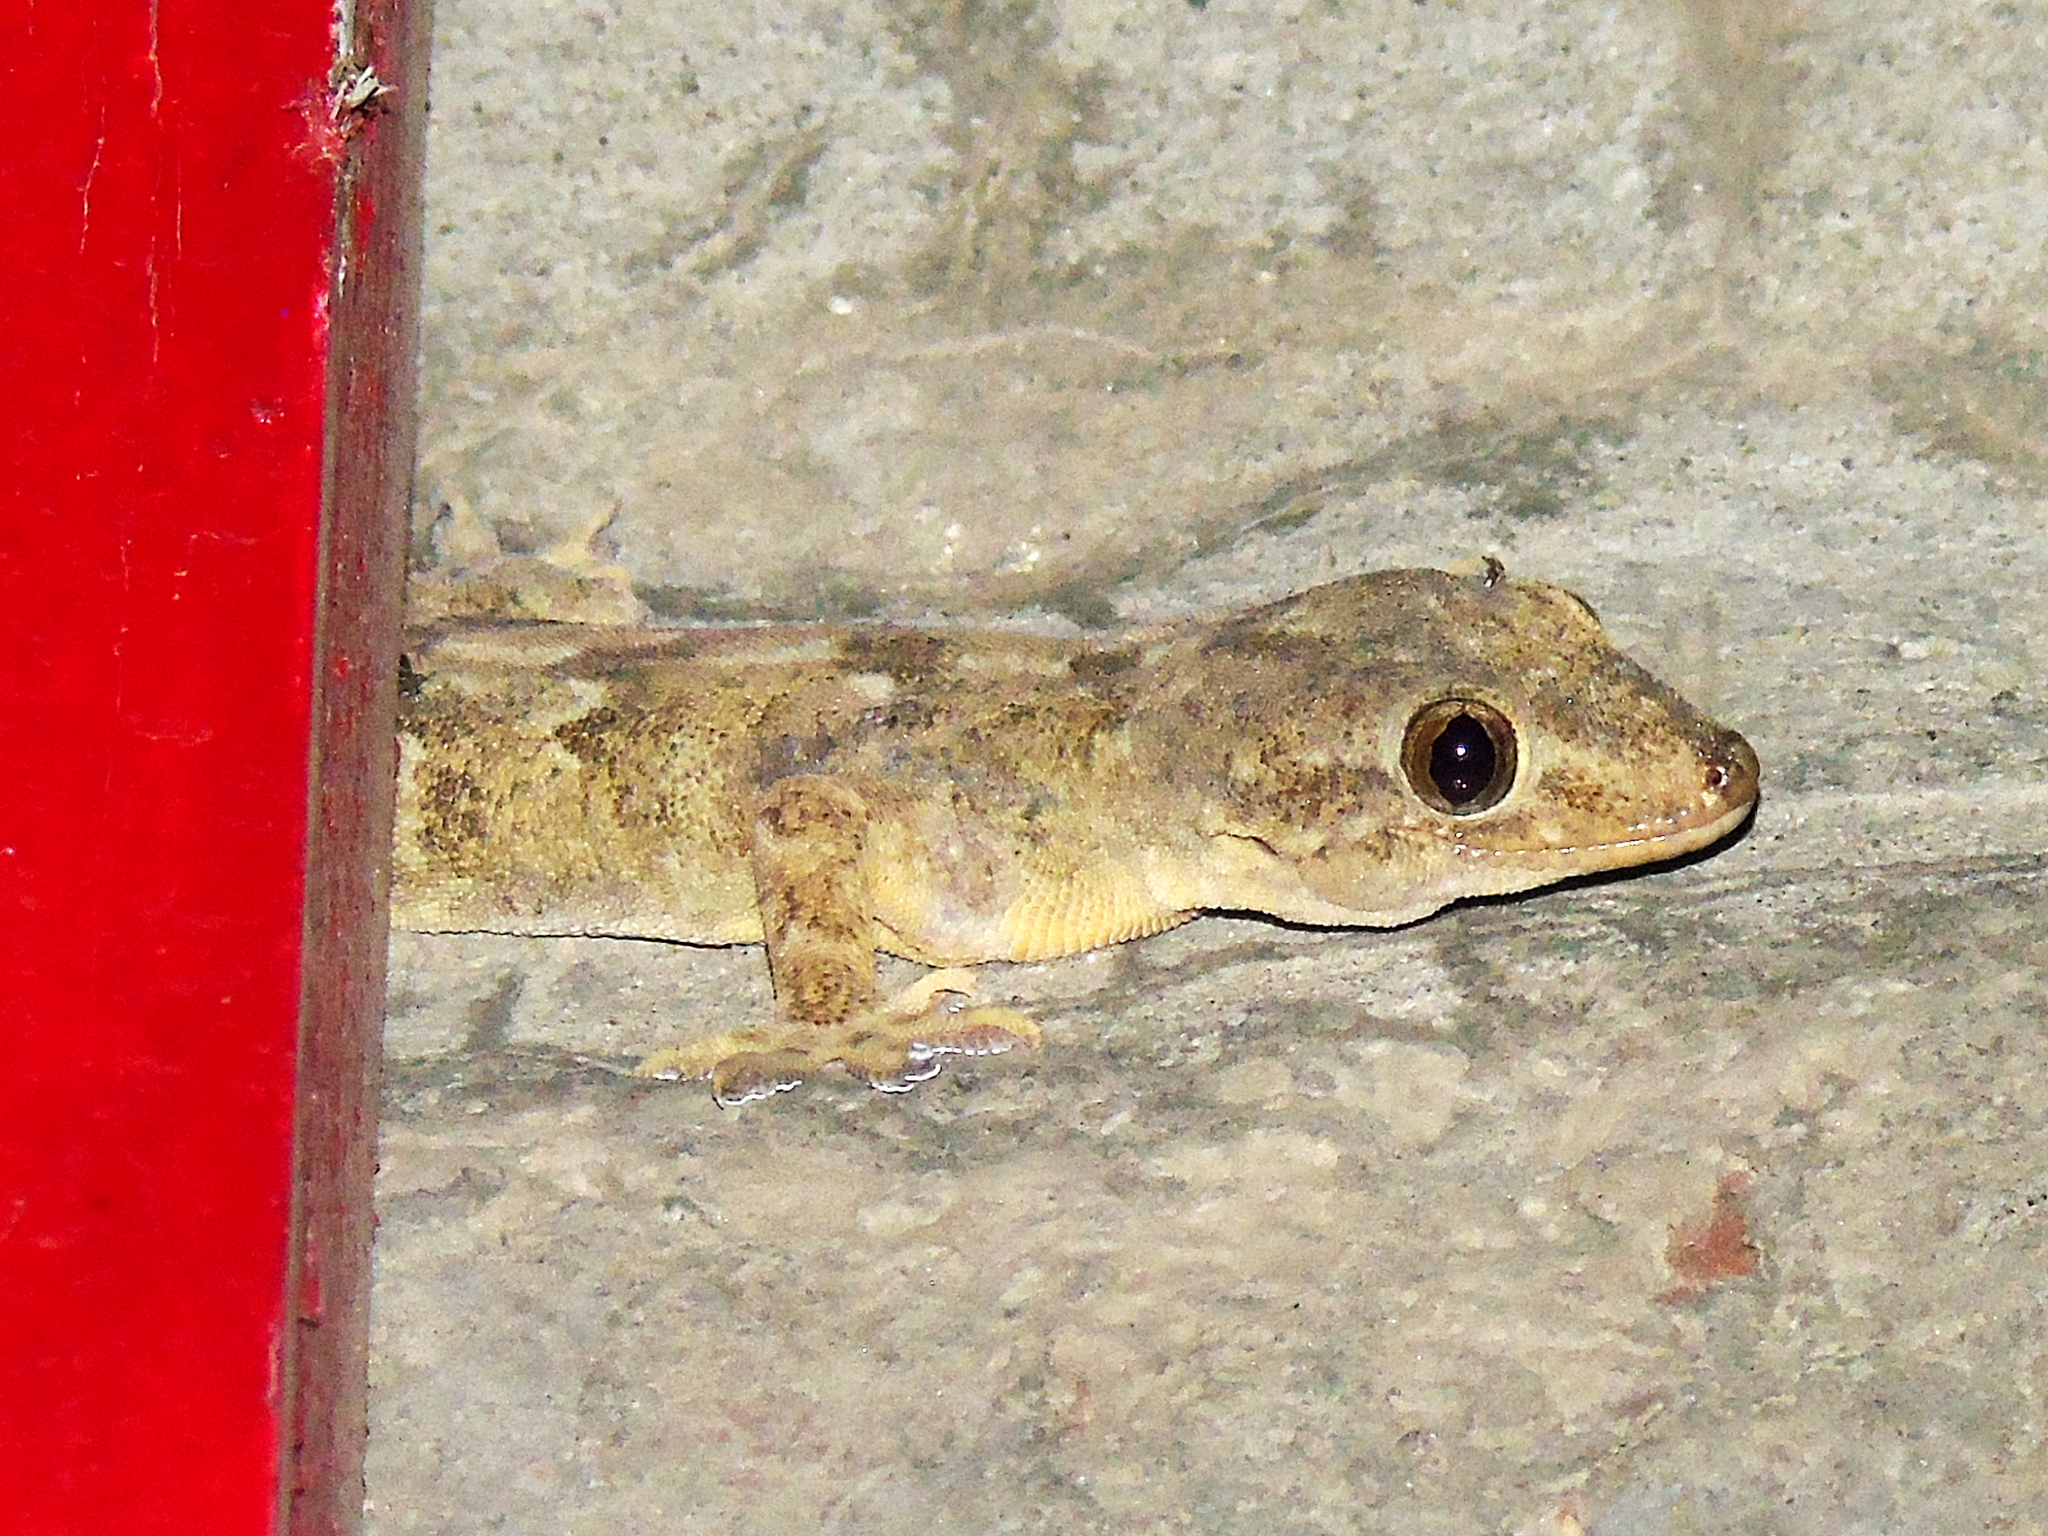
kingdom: Animalia
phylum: Chordata
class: Squamata
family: Gekkonidae
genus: Hemidactylus
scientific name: Hemidactylus flaviviridis
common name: Northern house gecko
